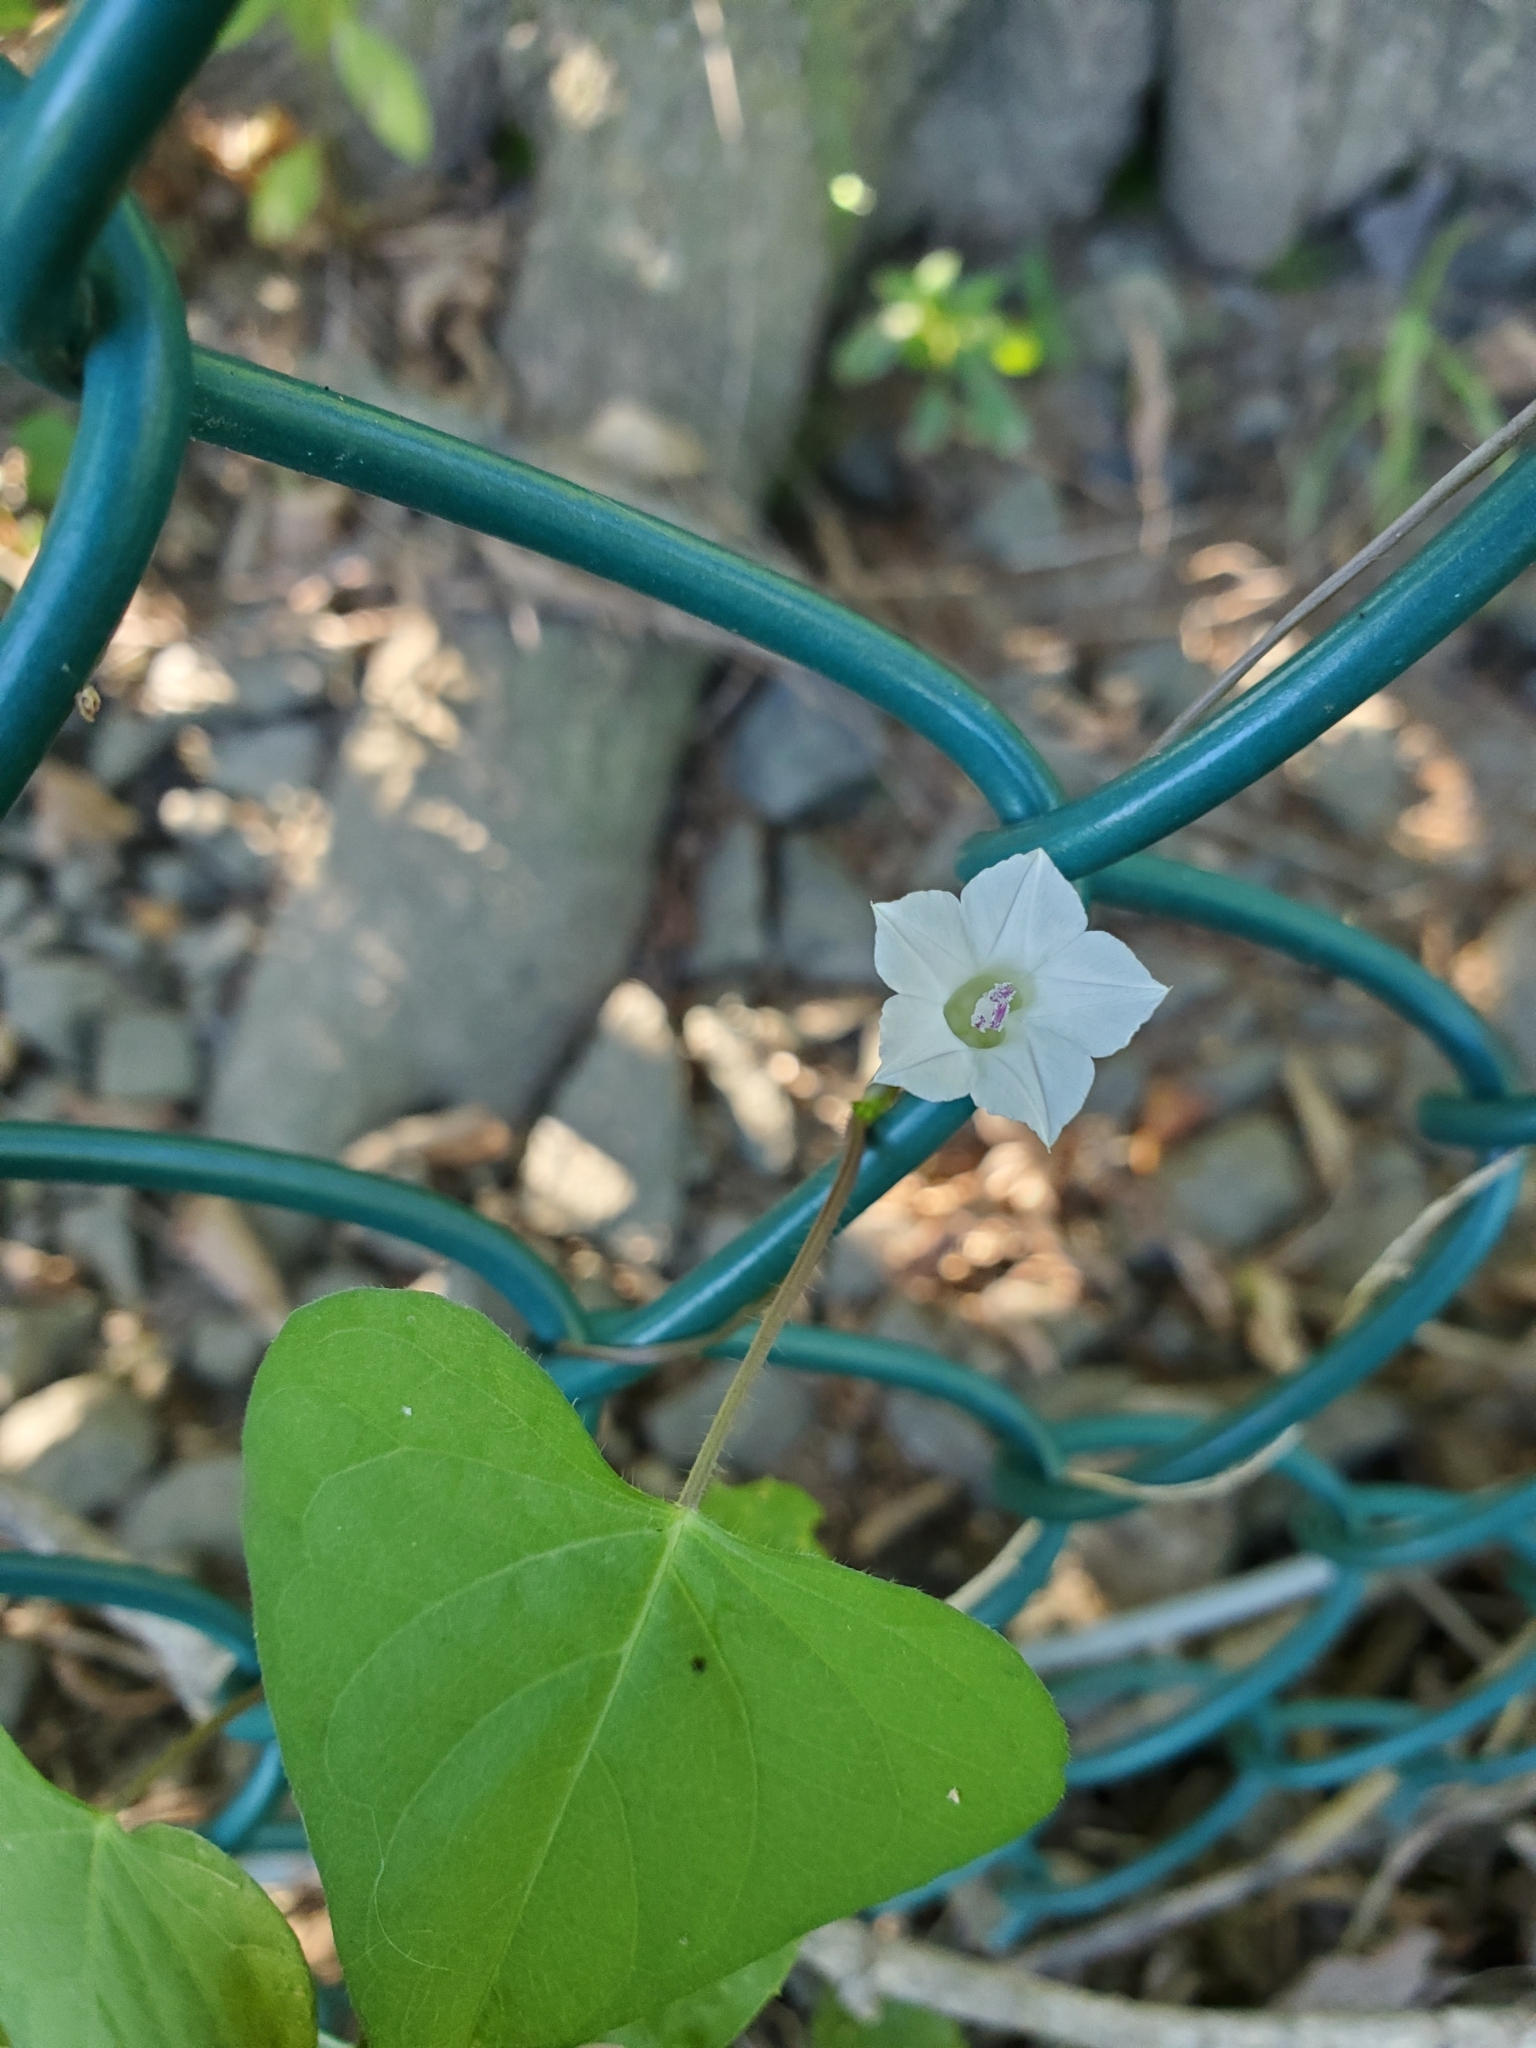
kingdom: Plantae
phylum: Tracheophyta
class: Magnoliopsida
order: Solanales
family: Convolvulaceae
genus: Ipomoea
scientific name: Ipomoea lacunosa
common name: White morning-glory
